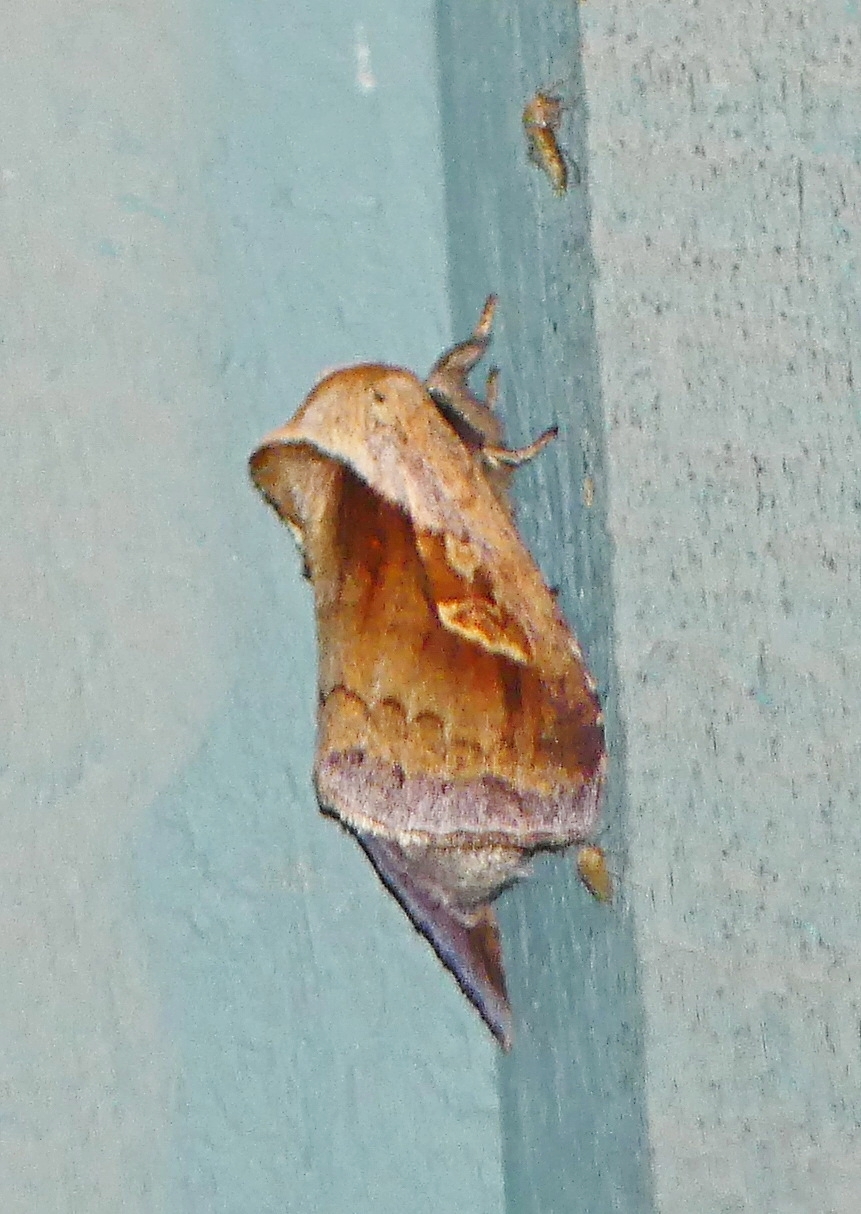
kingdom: Animalia
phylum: Arthropoda
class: Insecta
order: Lepidoptera
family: Noctuidae
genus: Bellura
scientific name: Bellura obliqua
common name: Cattail borer moth
